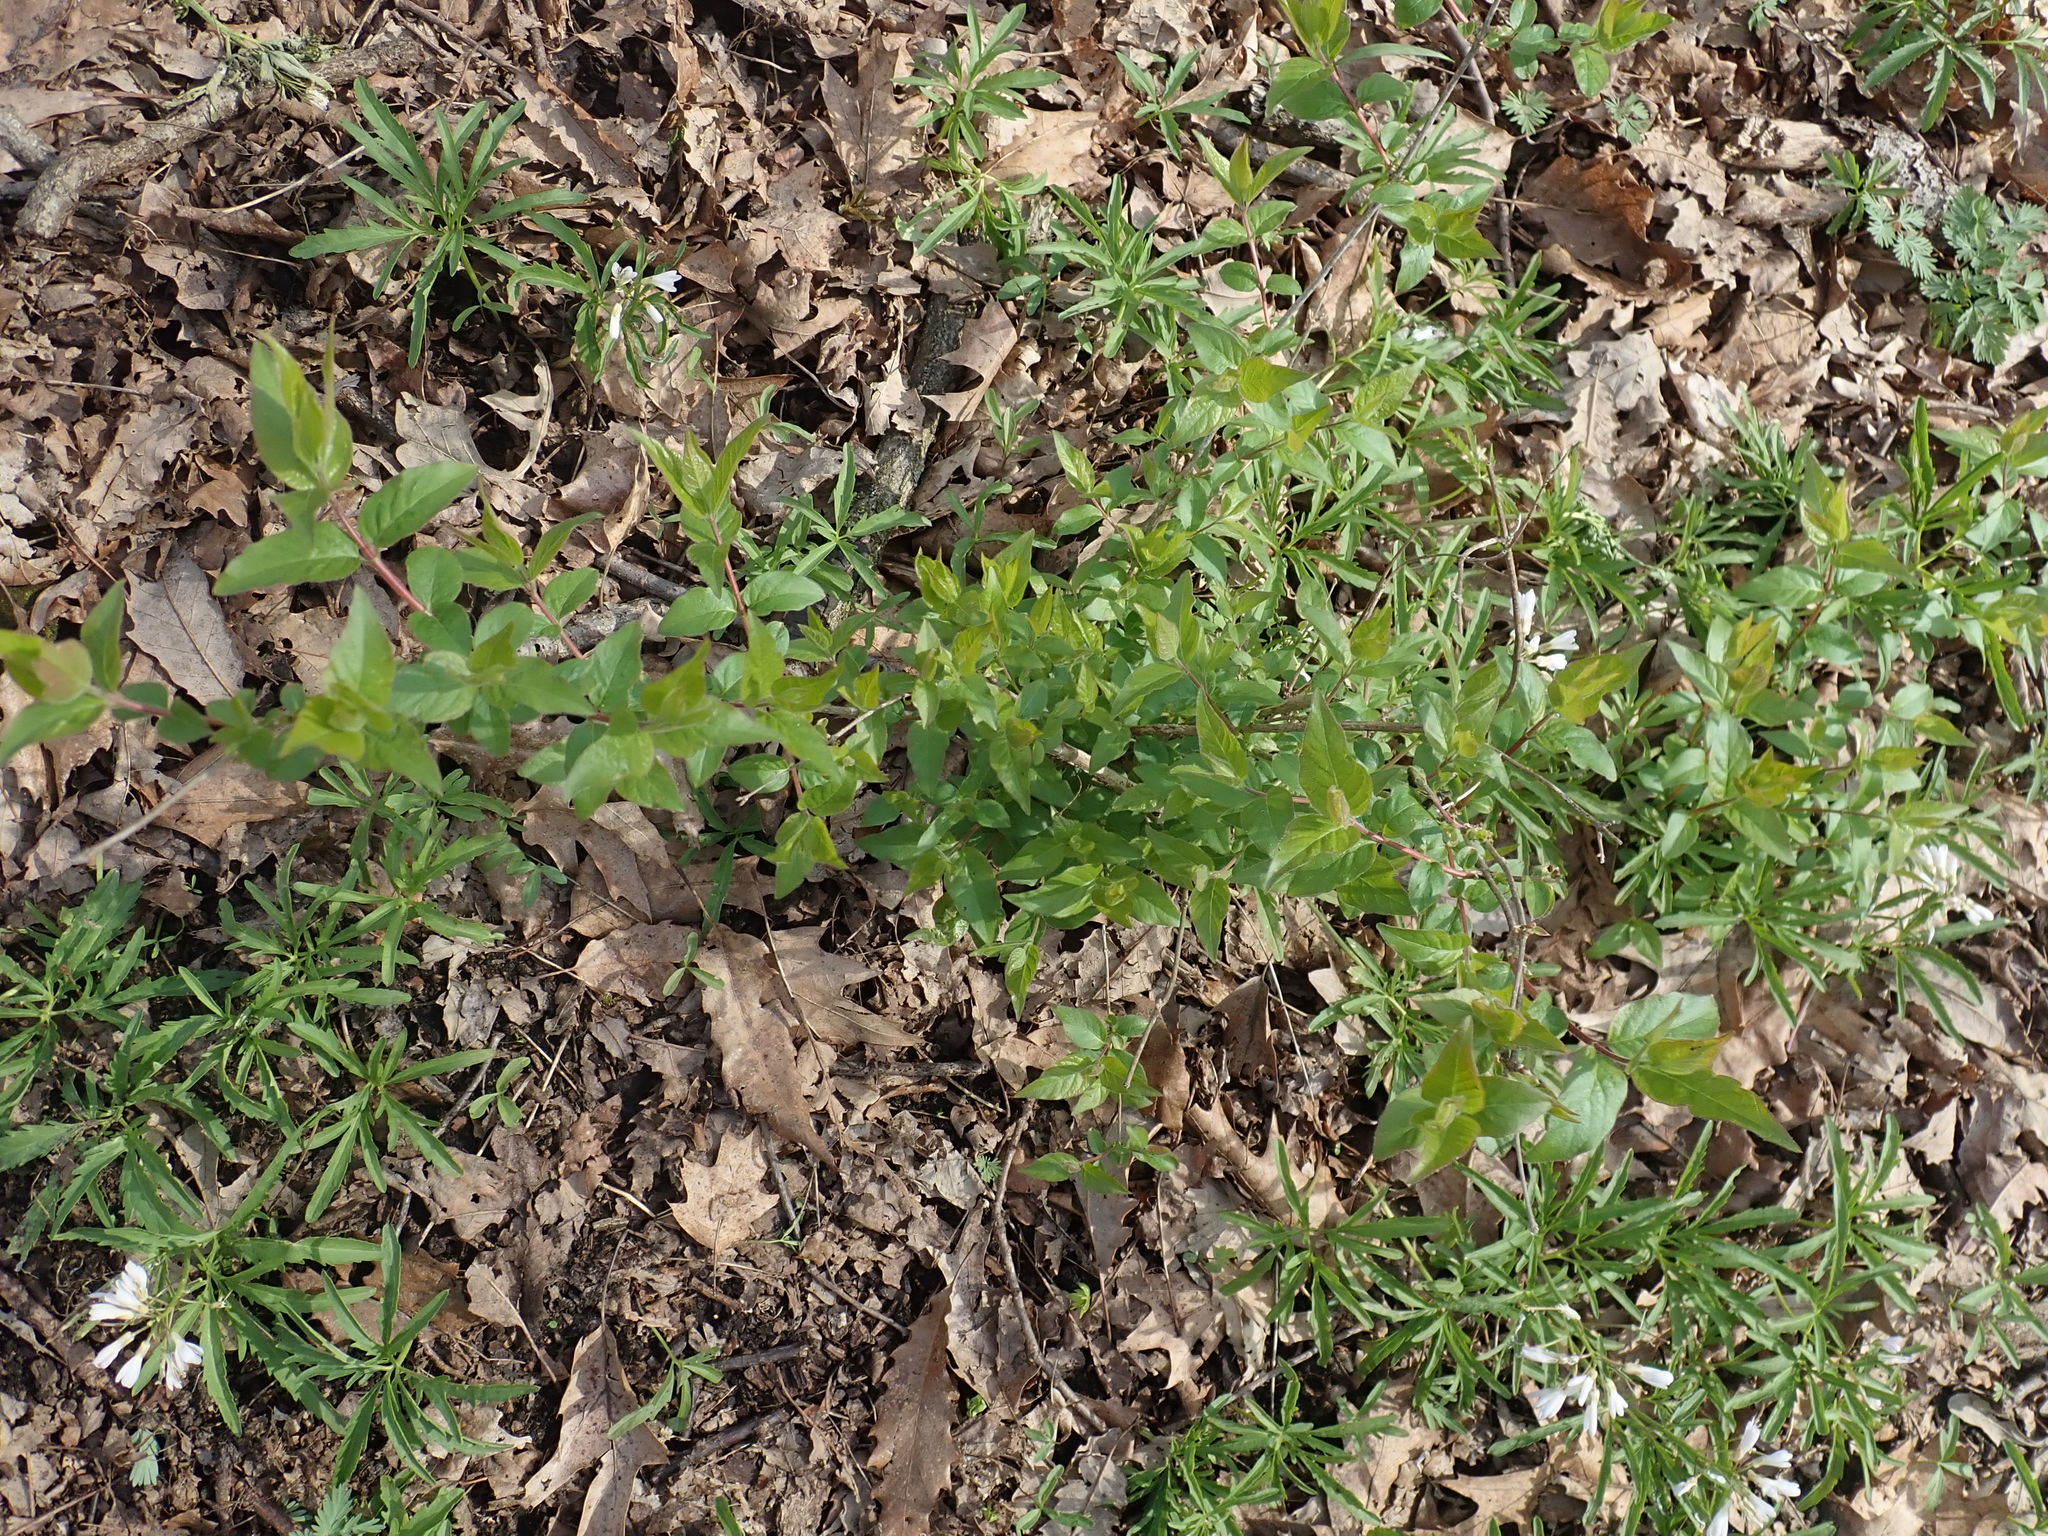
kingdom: Plantae
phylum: Tracheophyta
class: Magnoliopsida
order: Dipsacales
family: Caprifoliaceae
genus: Lonicera
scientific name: Lonicera maackii
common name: Amur honeysuckle
